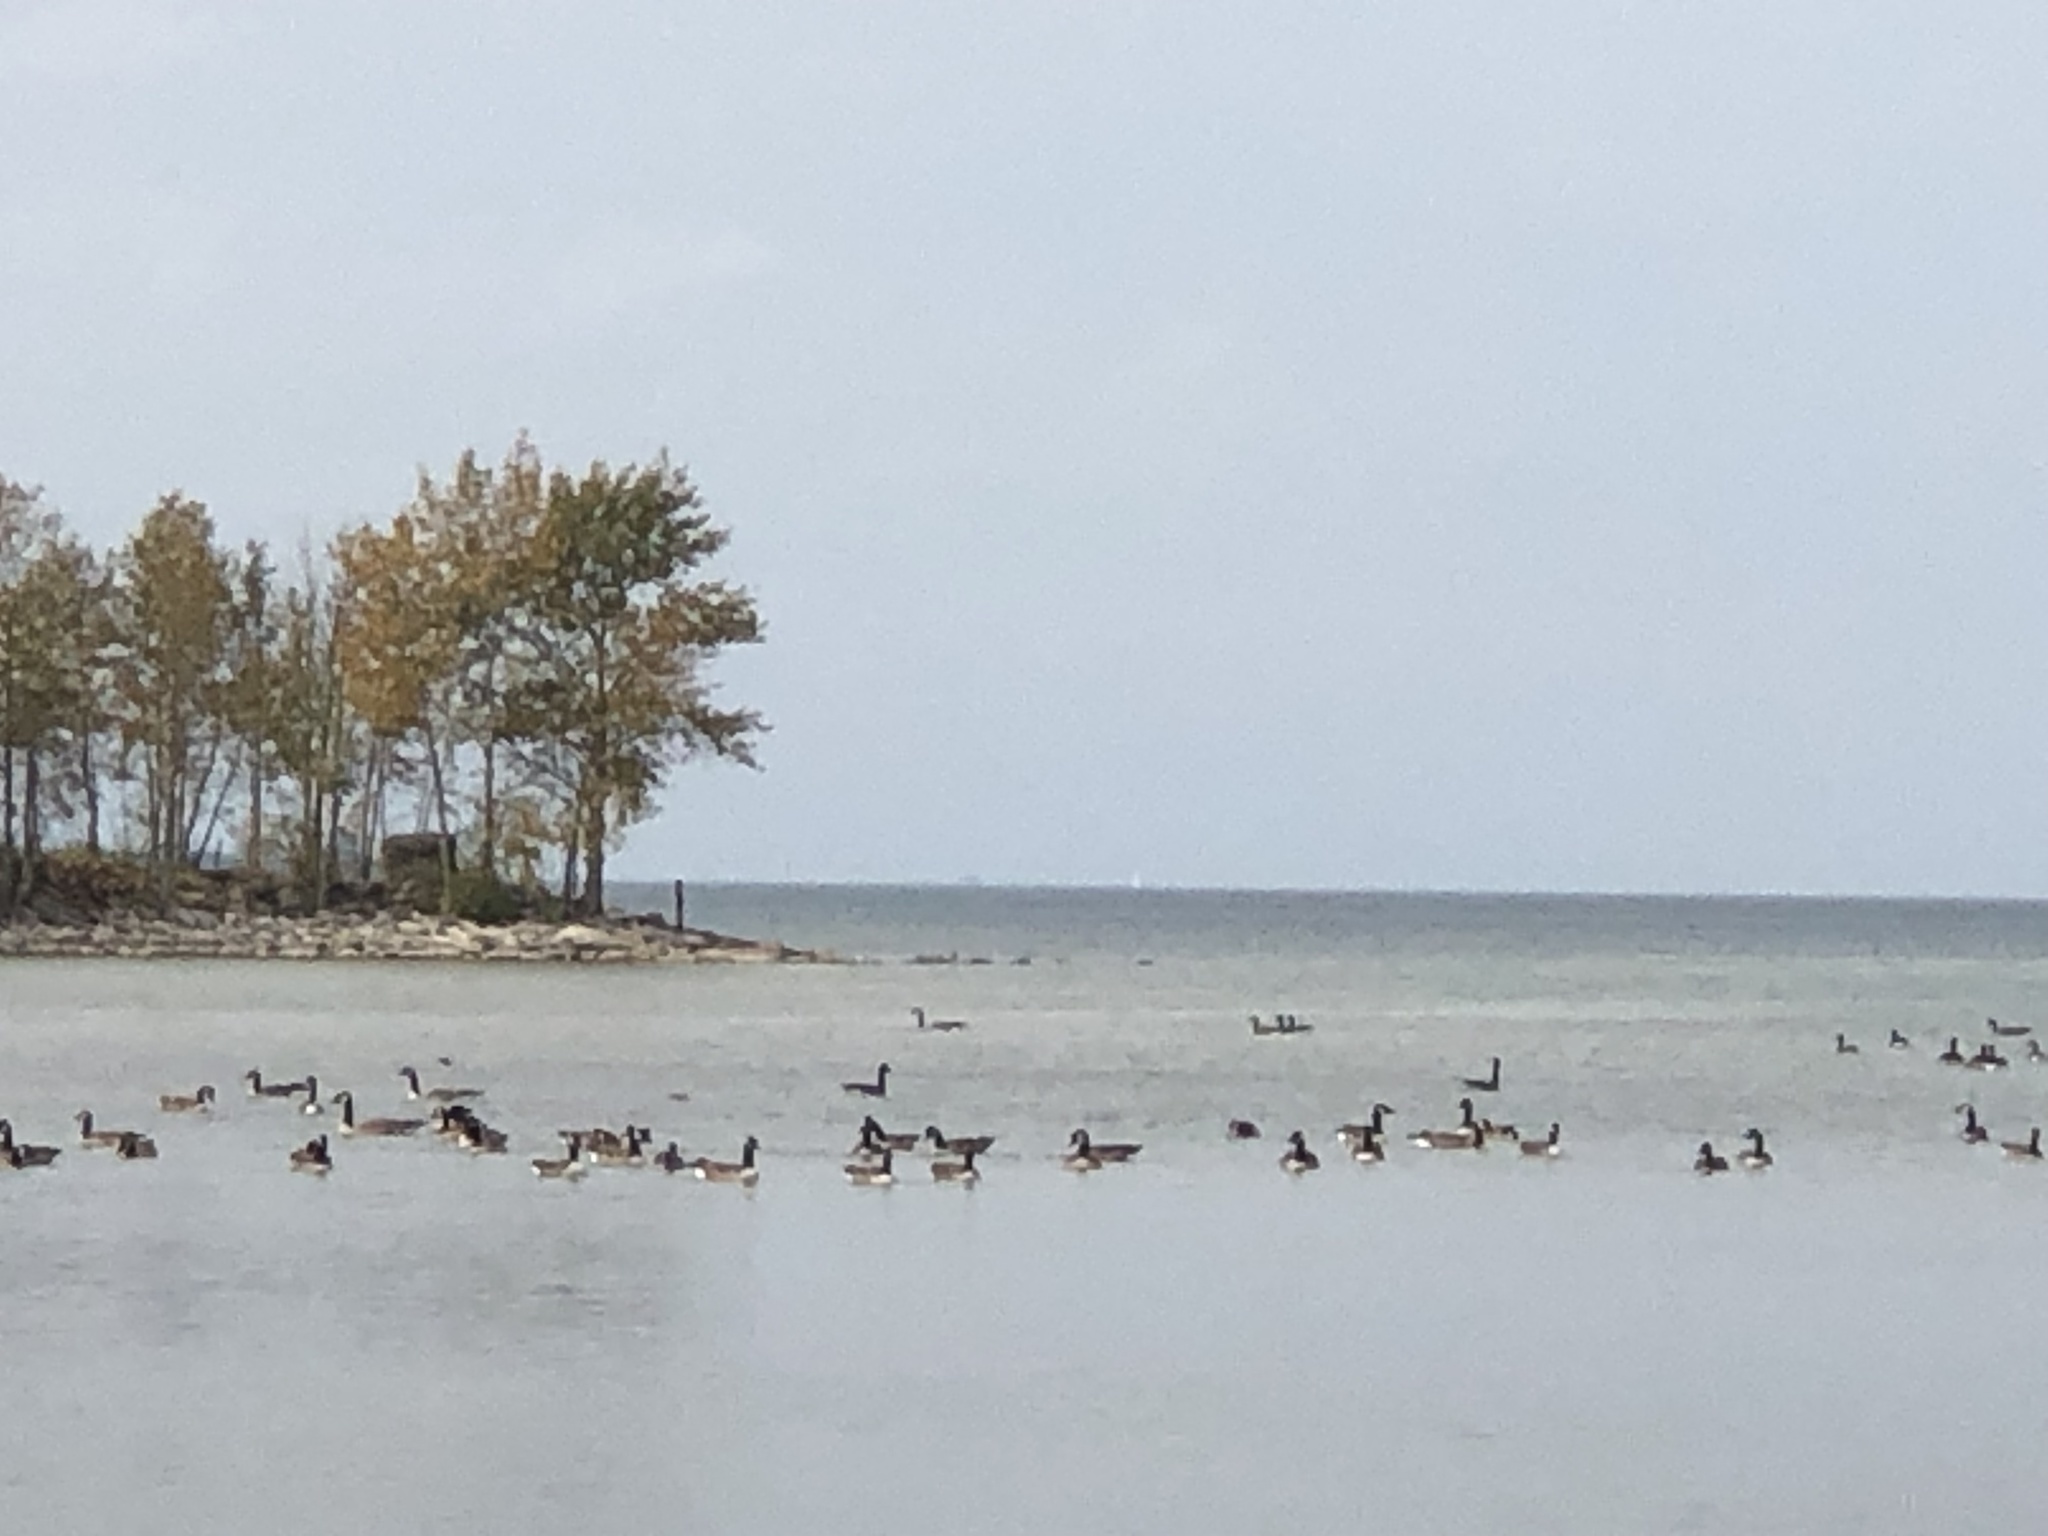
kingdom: Animalia
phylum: Chordata
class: Aves
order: Anseriformes
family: Anatidae
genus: Branta
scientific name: Branta canadensis
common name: Canada goose
